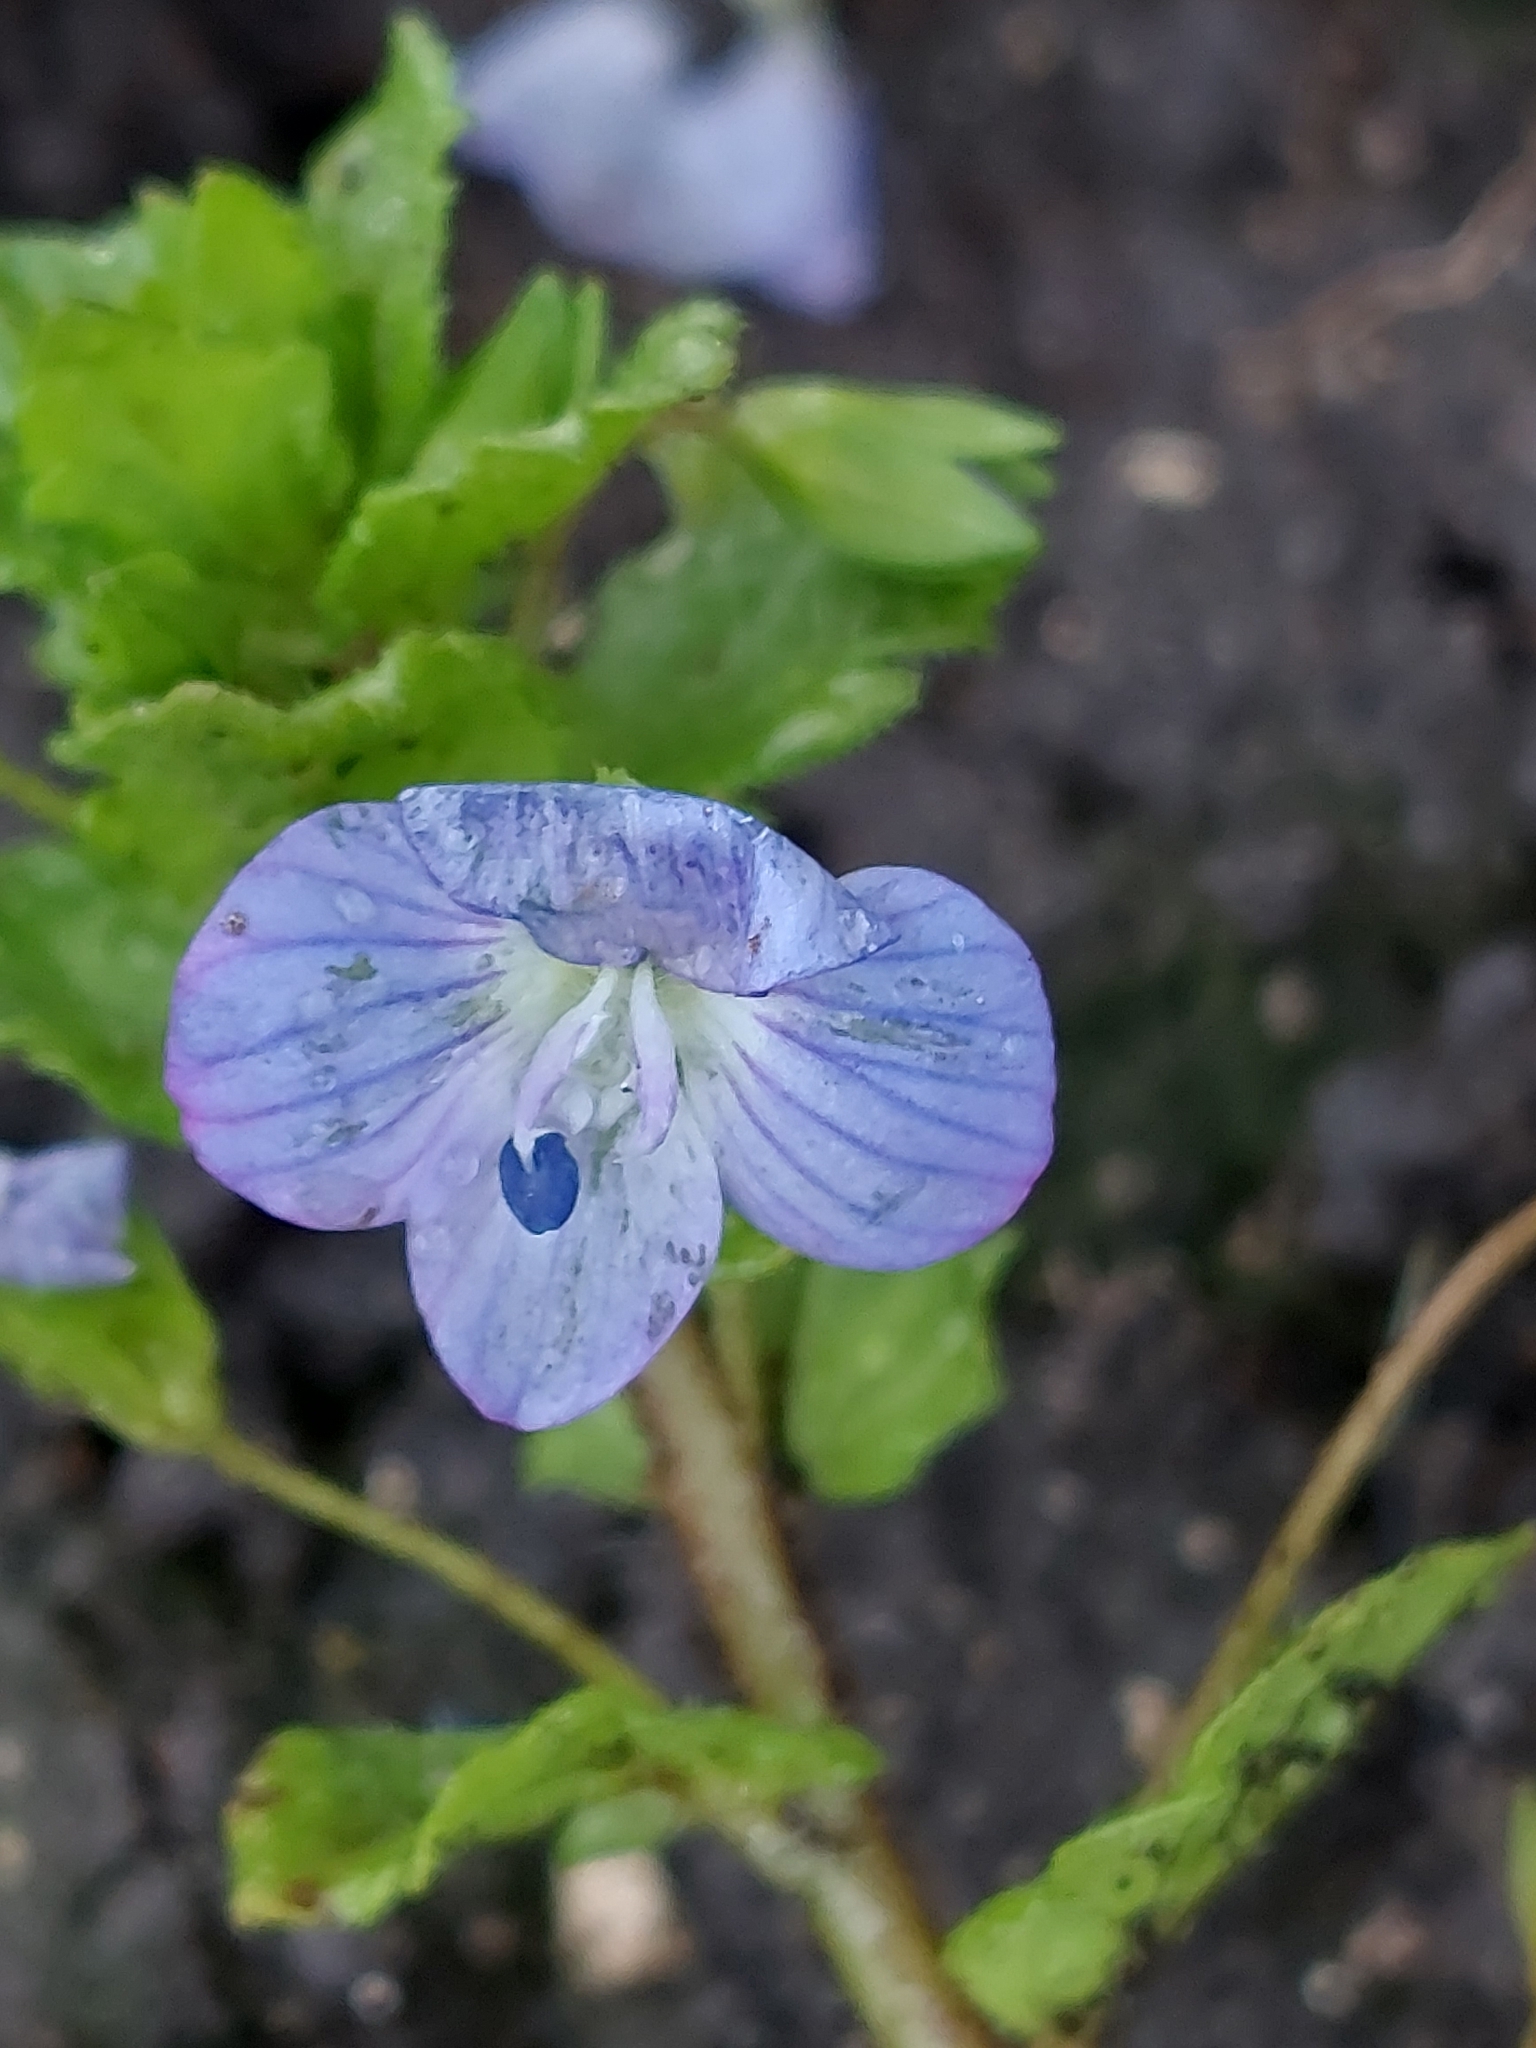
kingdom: Plantae
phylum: Tracheophyta
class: Magnoliopsida
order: Lamiales
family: Plantaginaceae
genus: Veronica
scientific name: Veronica persica
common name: Common field-speedwell
